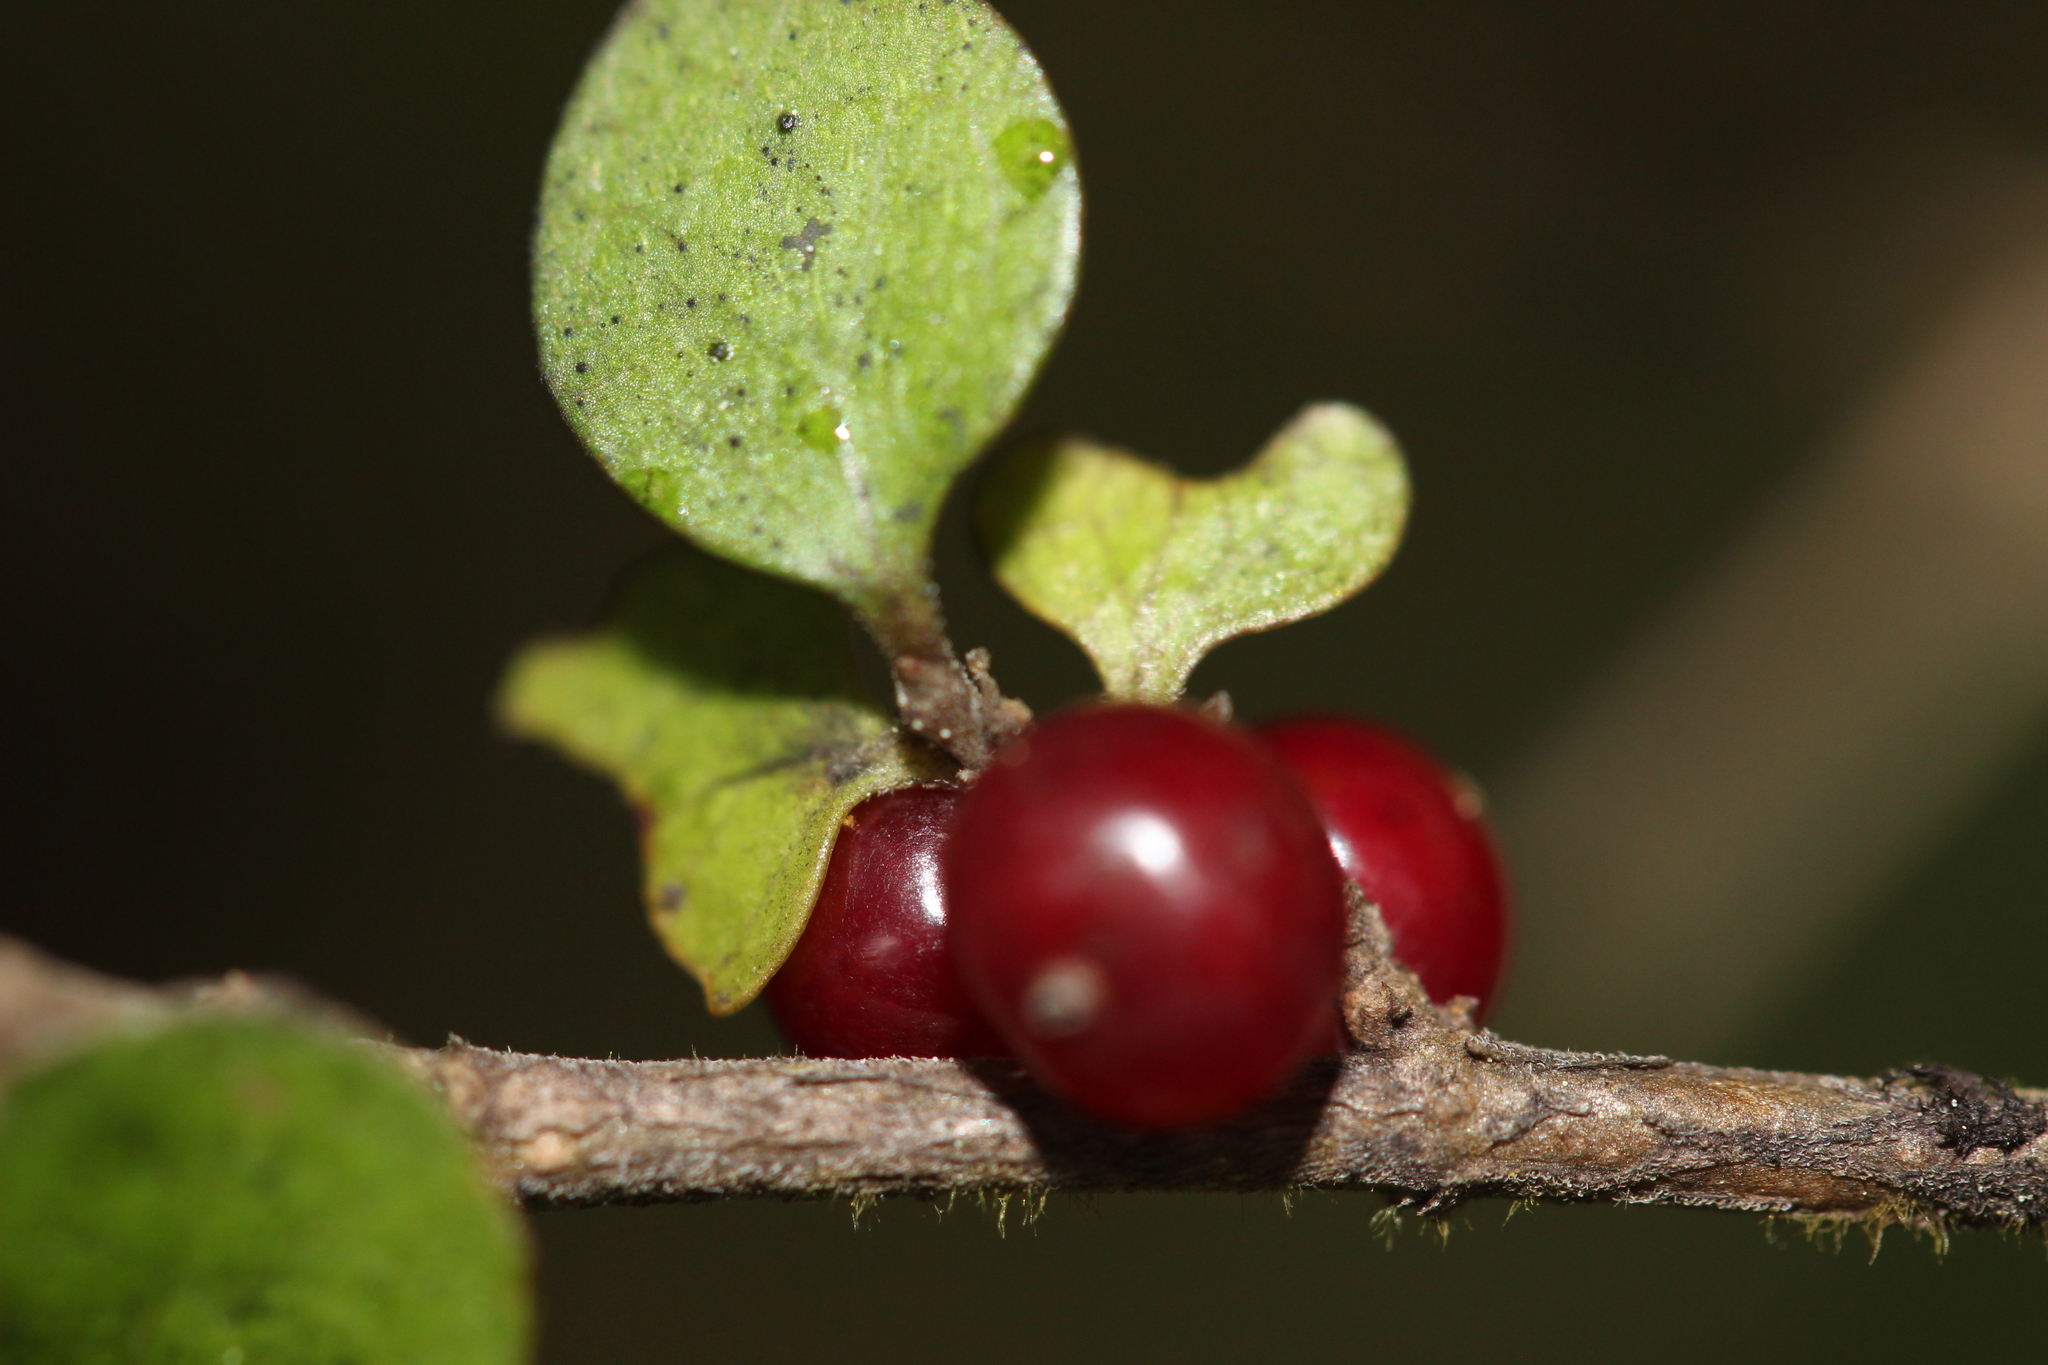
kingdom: Plantae
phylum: Tracheophyta
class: Magnoliopsida
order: Gentianales
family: Rubiaceae
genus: Coprosma
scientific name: Coprosma rhamnoides
